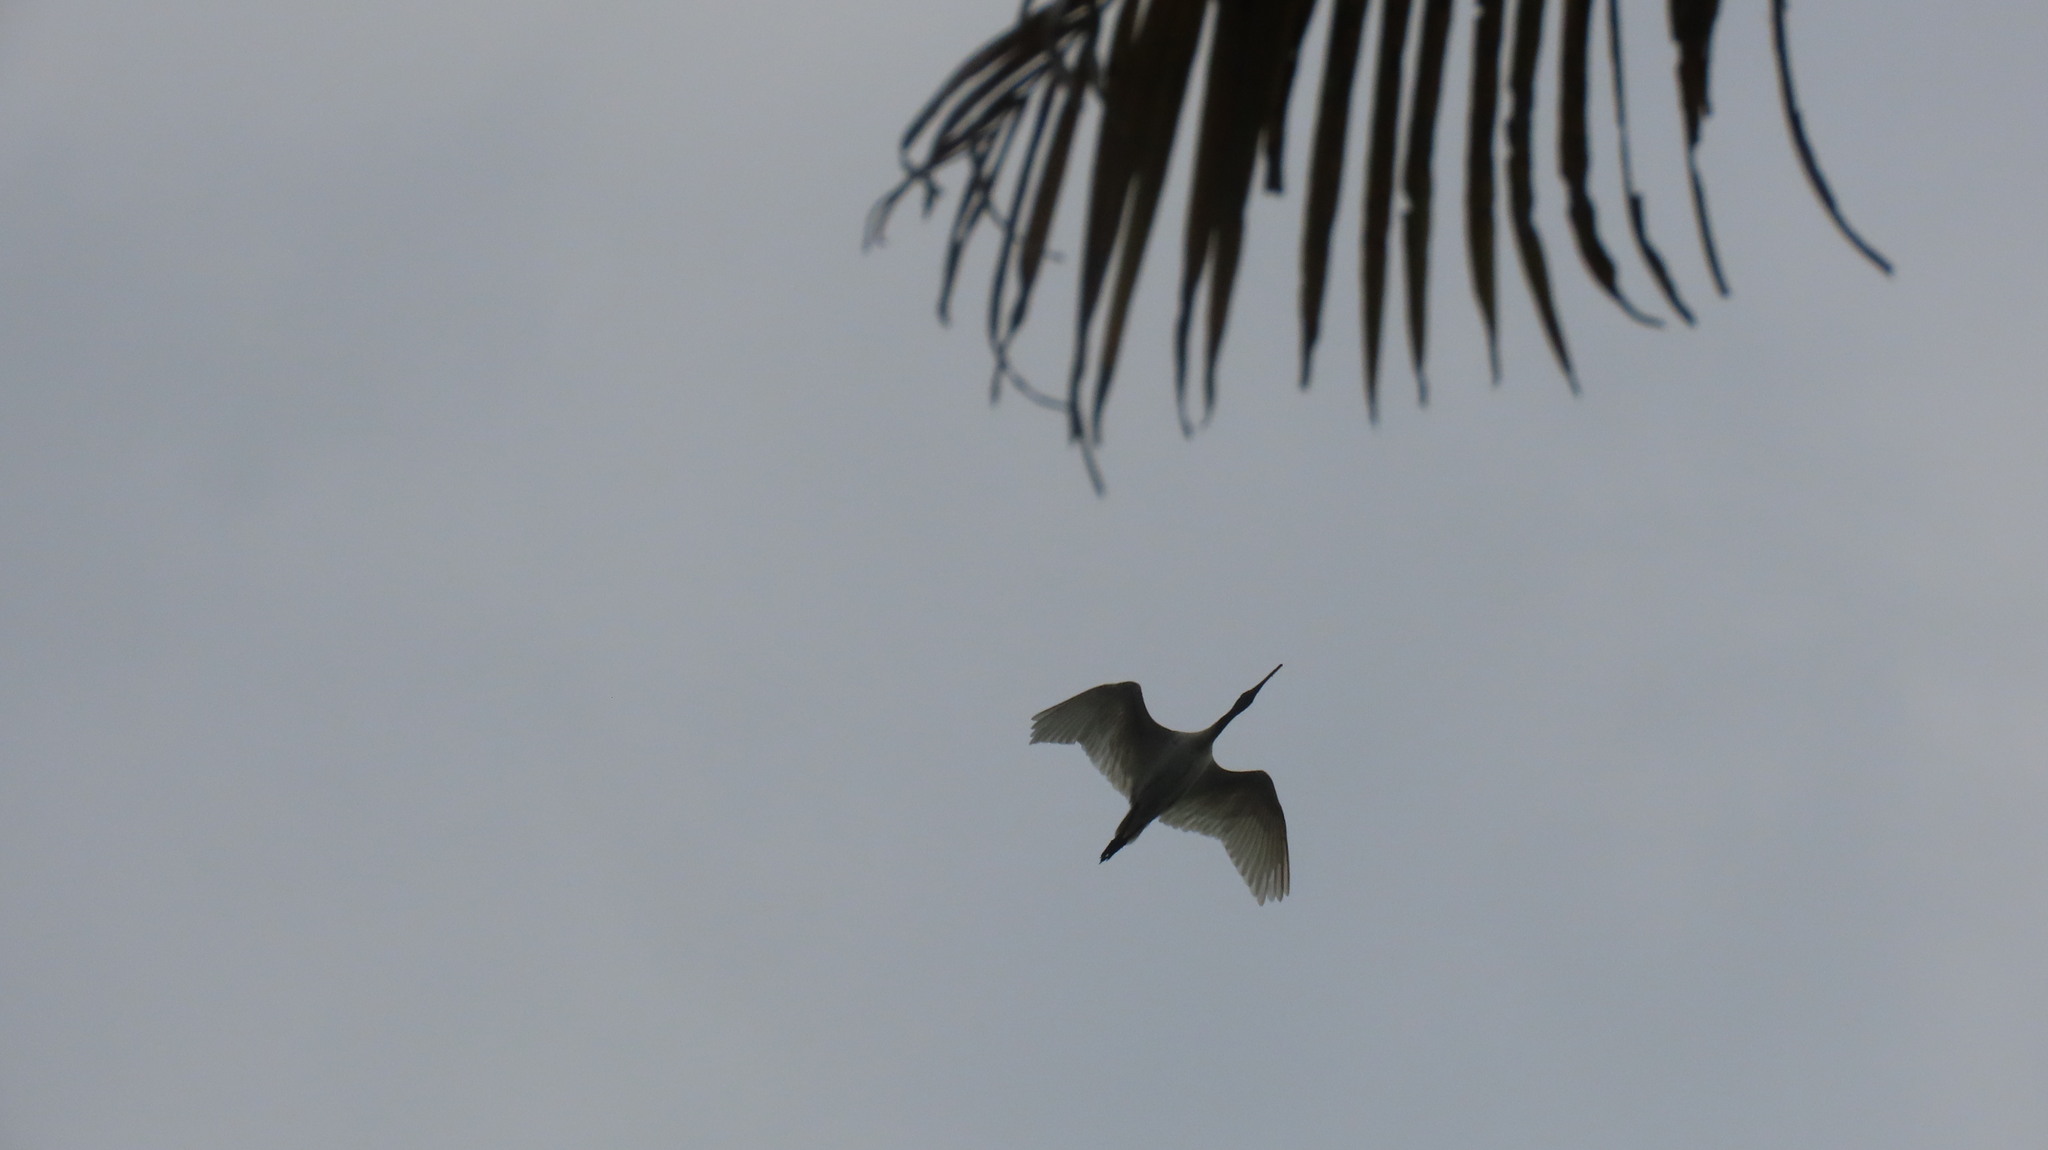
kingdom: Animalia
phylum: Chordata
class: Aves
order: Pelecaniformes
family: Threskiornithidae
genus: Threskiornis
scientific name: Threskiornis melanocephalus
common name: Black-headed ibis
